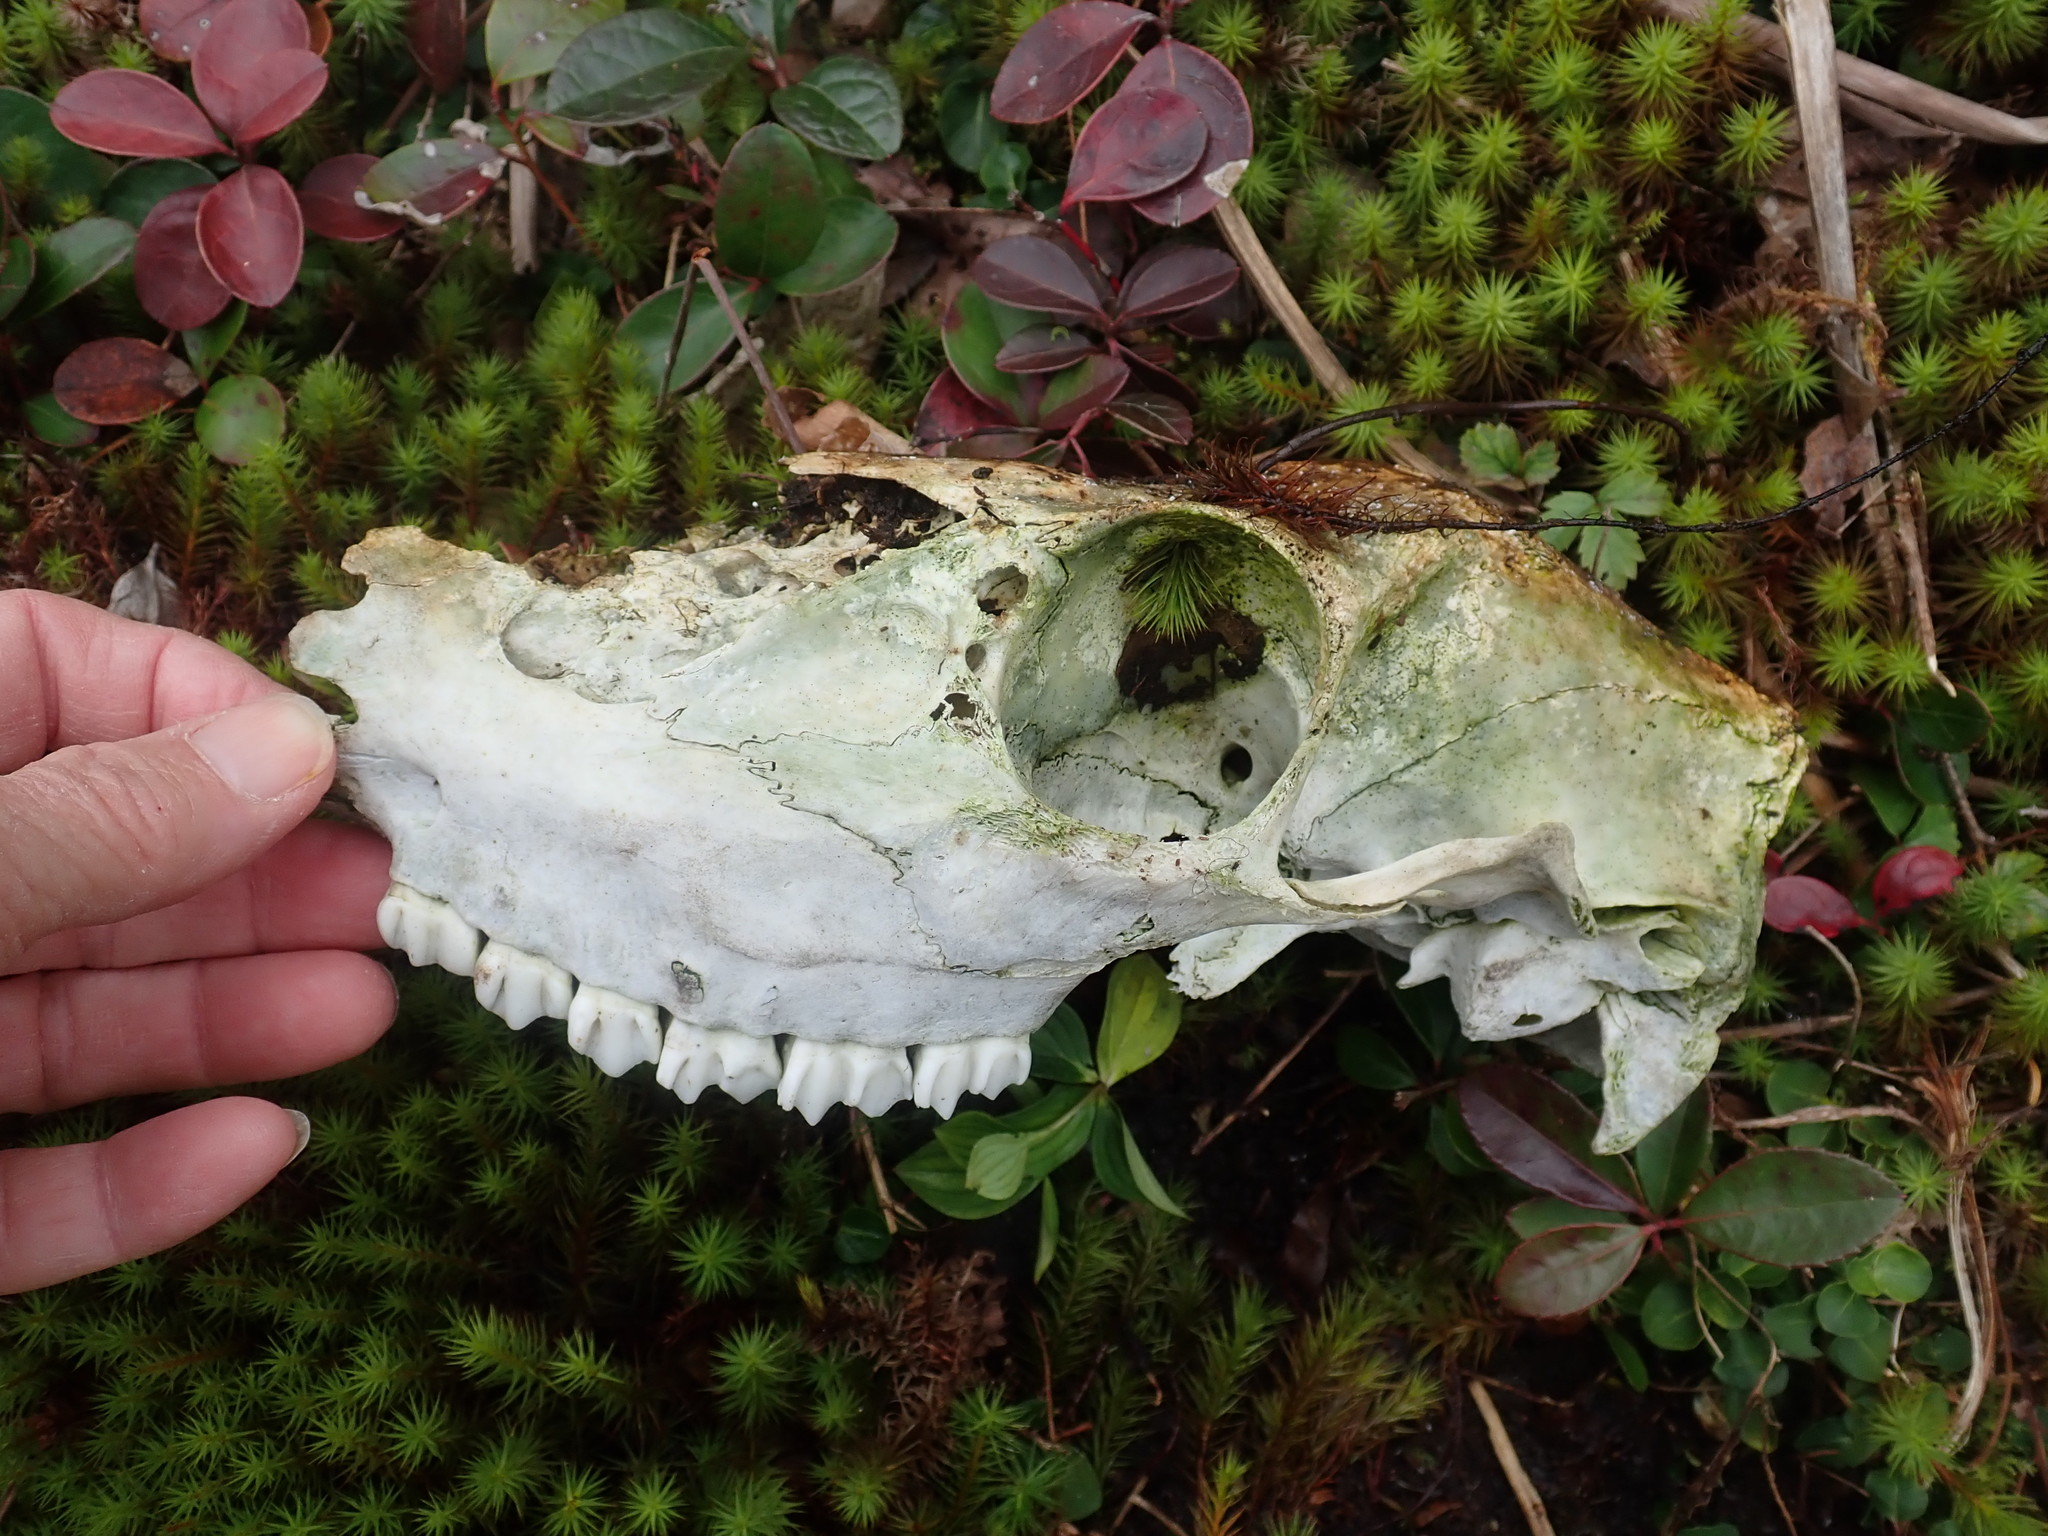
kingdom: Animalia
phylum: Chordata
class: Mammalia
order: Artiodactyla
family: Cervidae
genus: Odocoileus
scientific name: Odocoileus virginianus
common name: White-tailed deer
